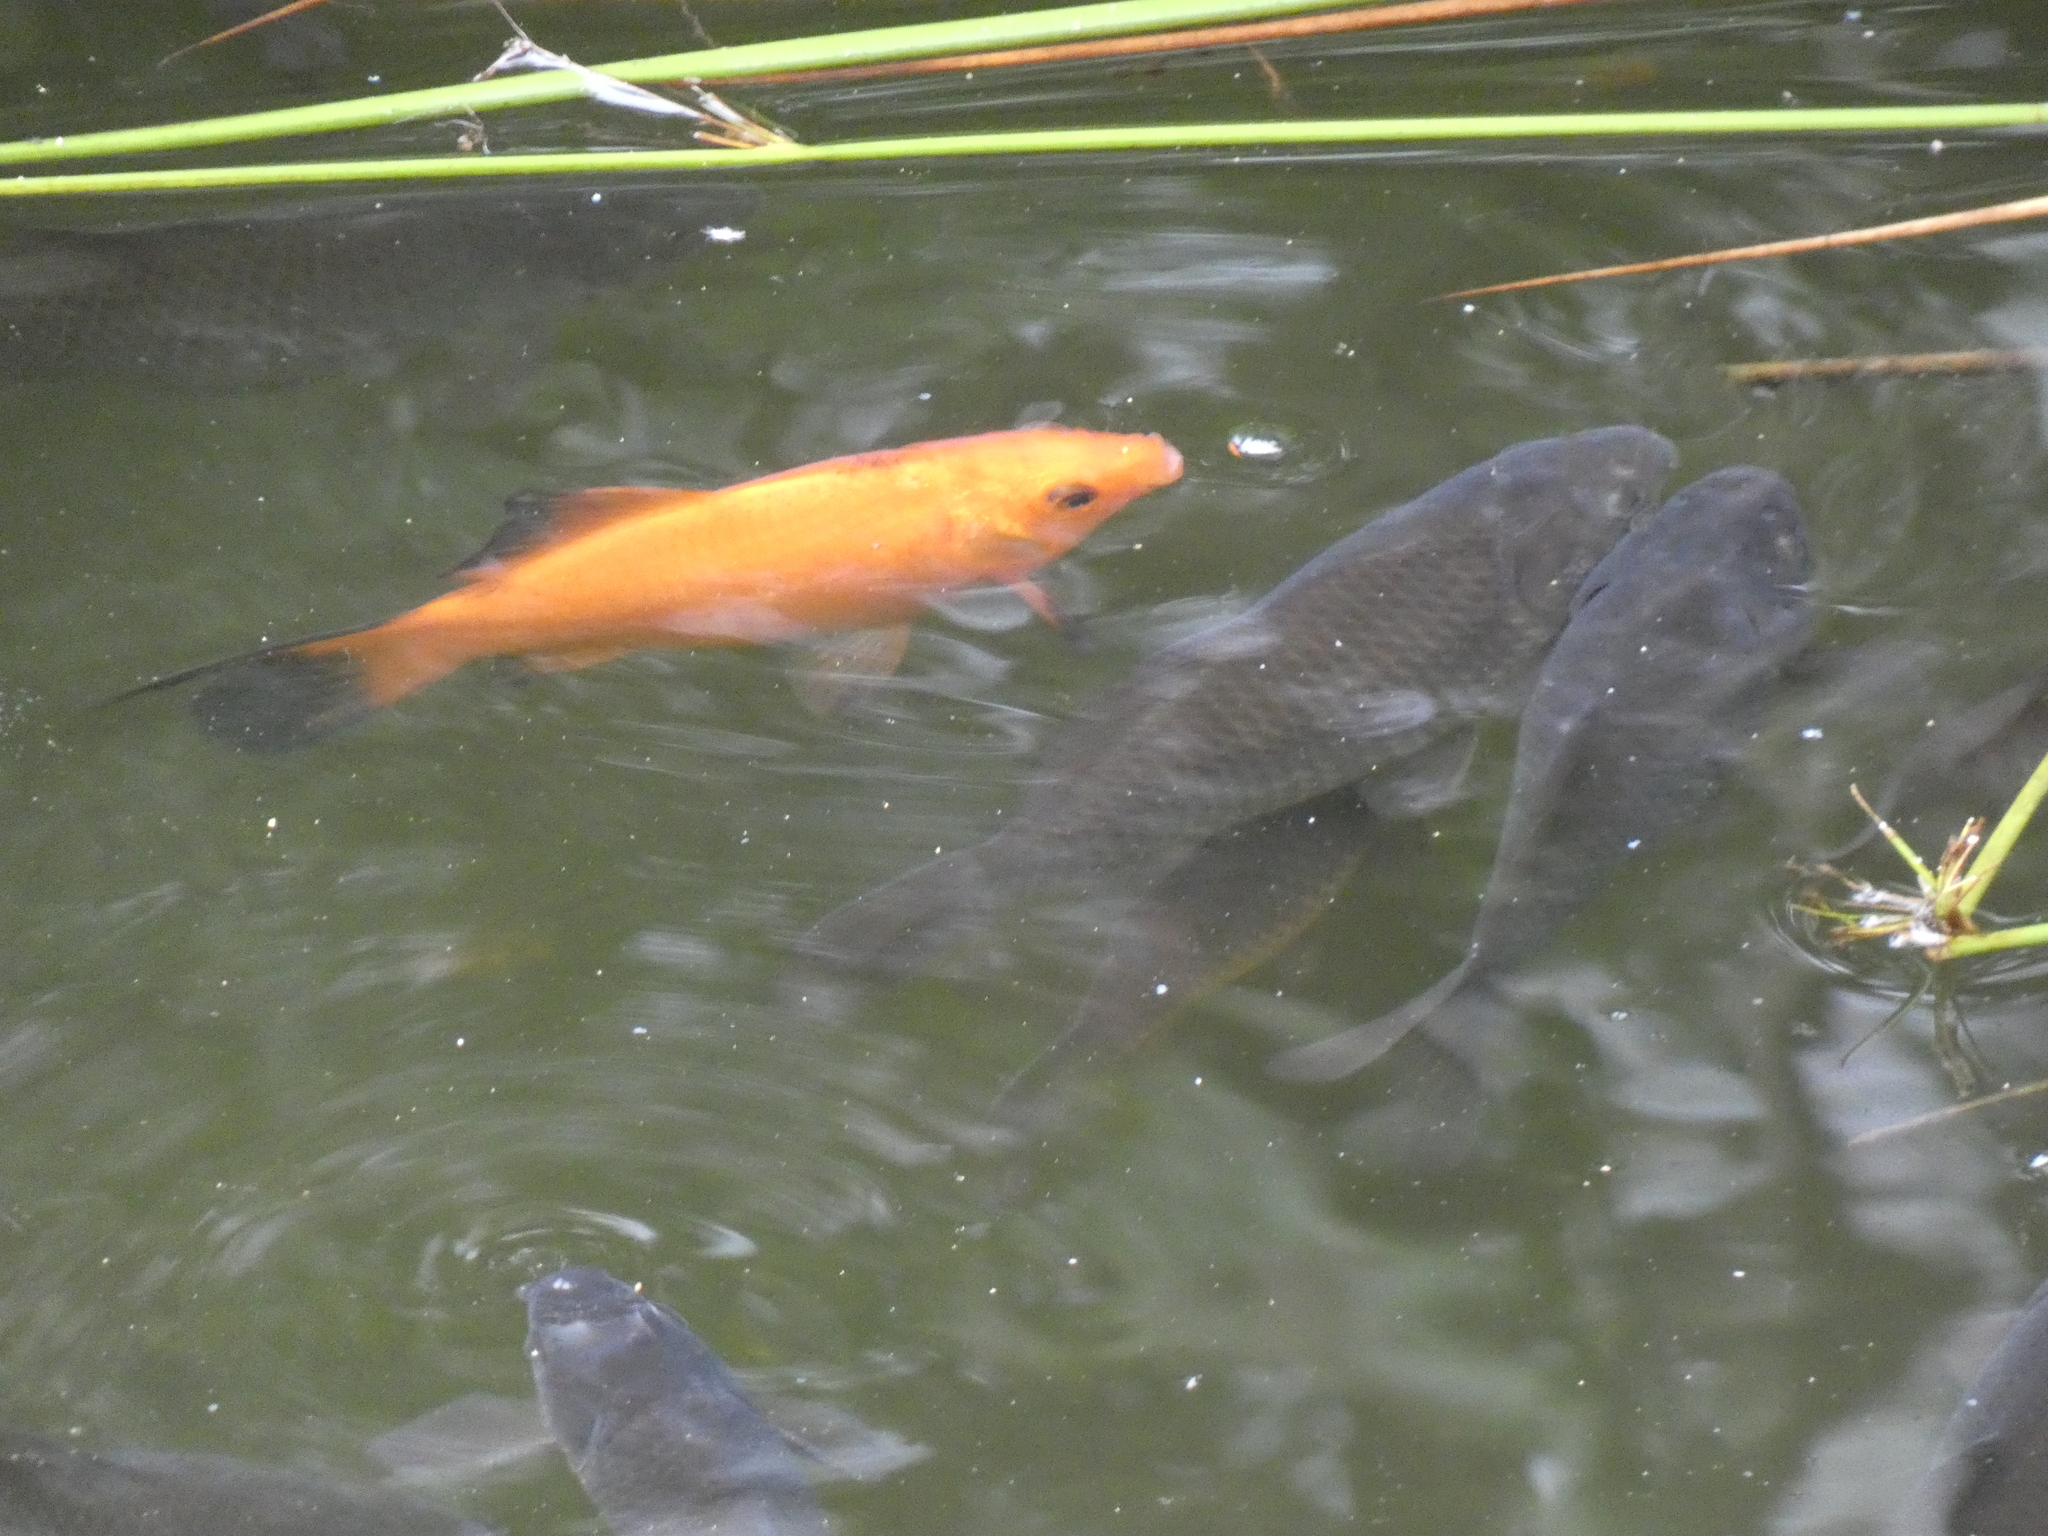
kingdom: Animalia
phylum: Chordata
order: Cypriniformes
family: Cyprinidae
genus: Carassius
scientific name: Carassius auratus
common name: Goldfish
